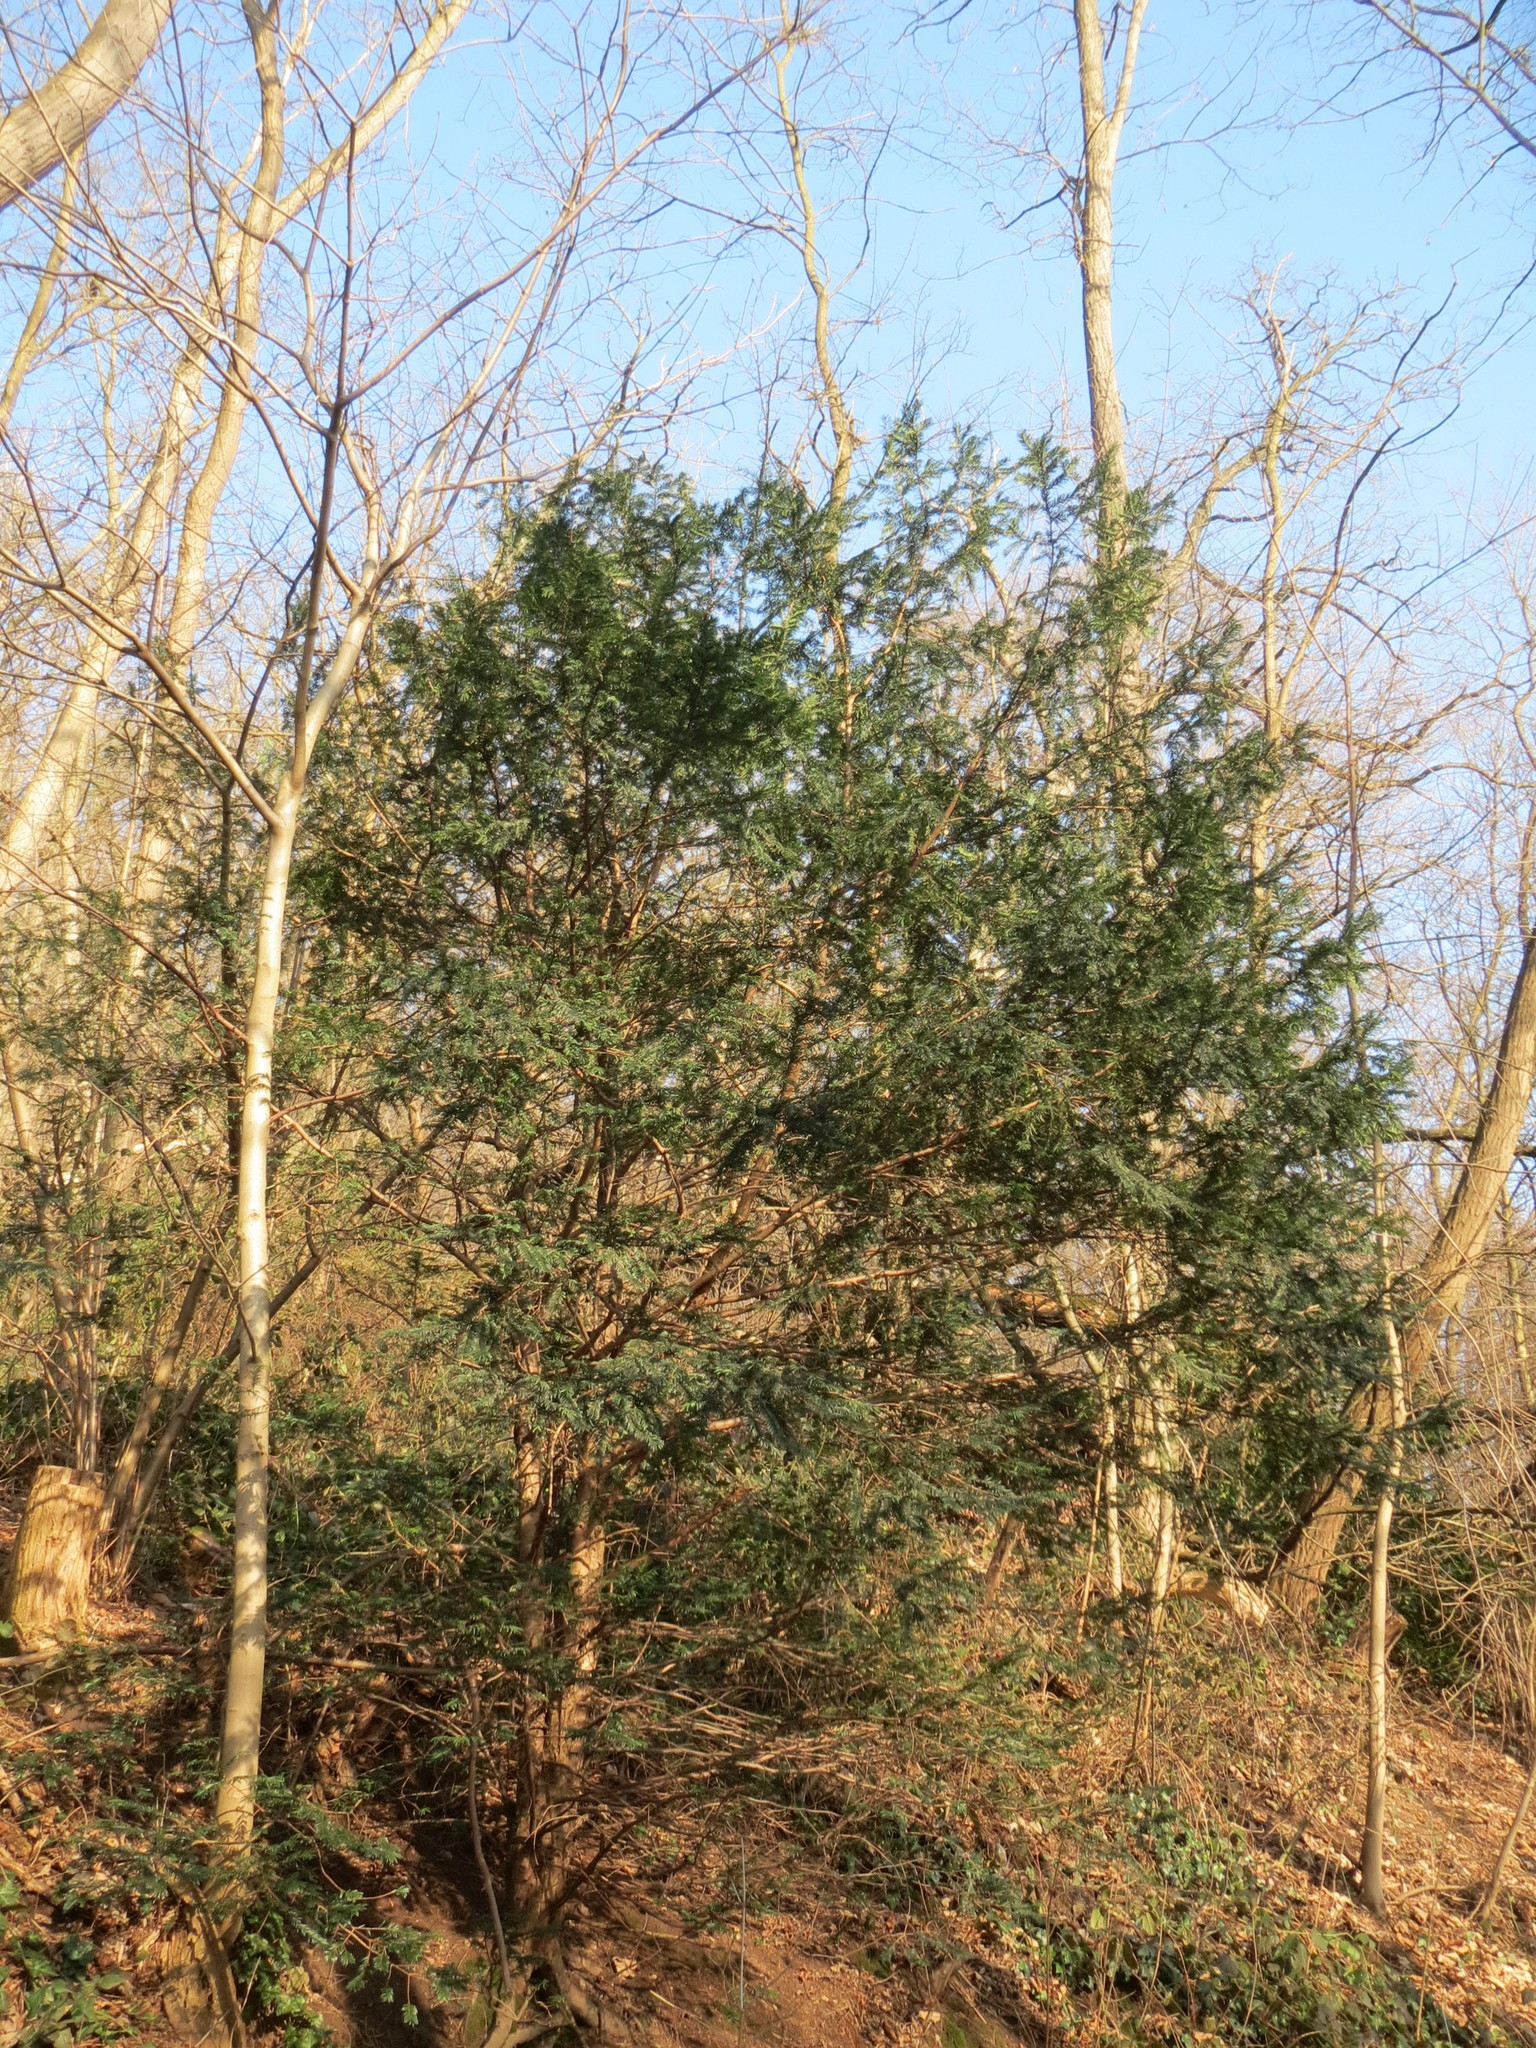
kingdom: Plantae
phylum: Tracheophyta
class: Pinopsida
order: Pinales
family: Taxaceae
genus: Taxus
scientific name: Taxus baccata
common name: Yew
